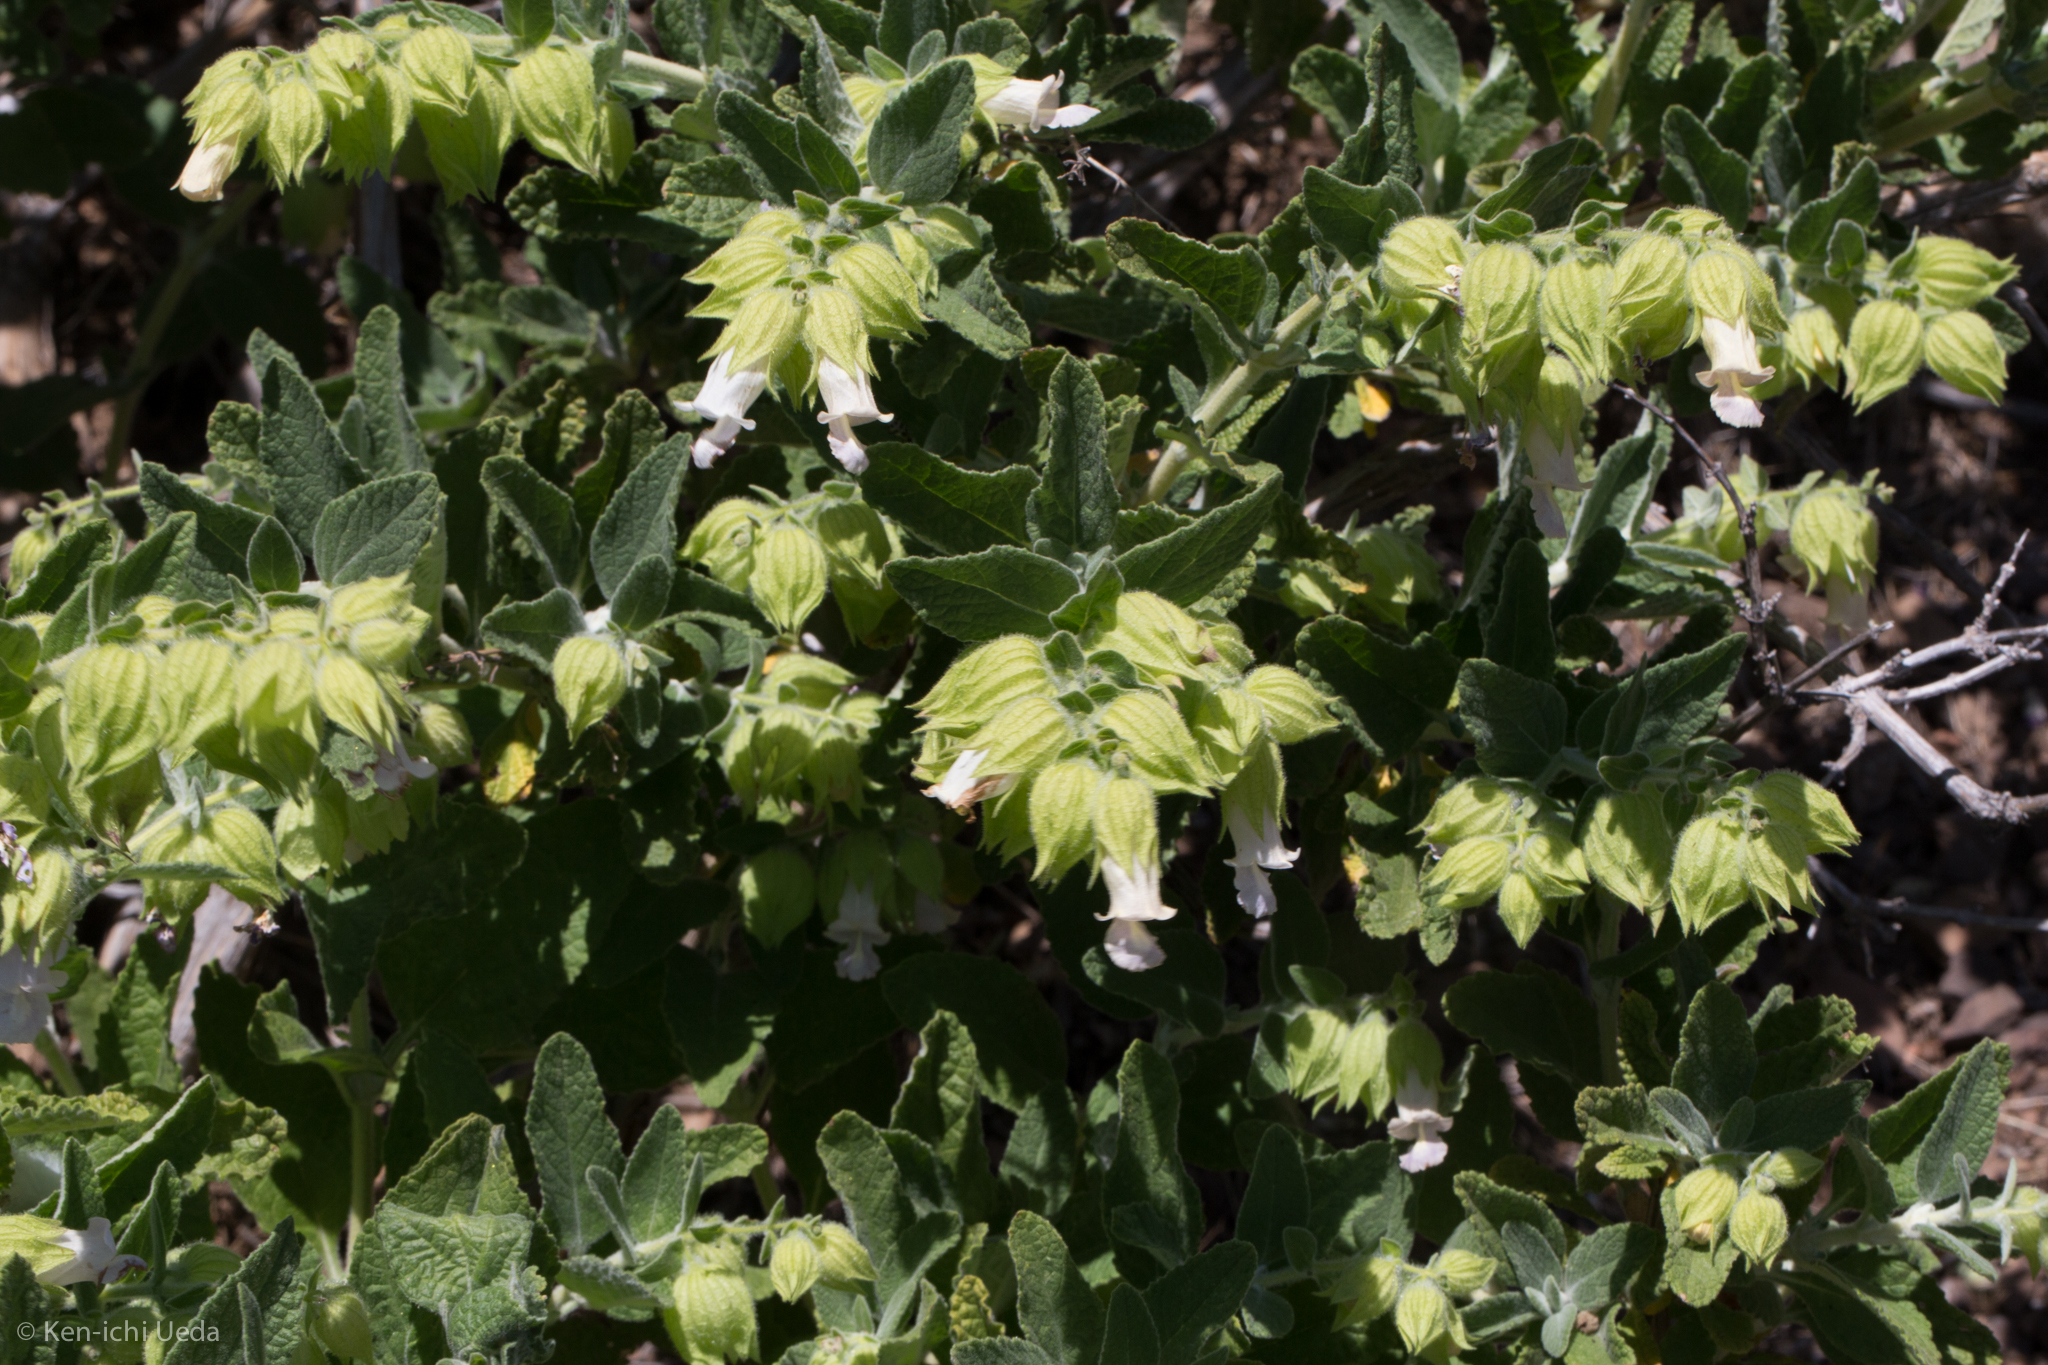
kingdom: Plantae
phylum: Tracheophyta
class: Magnoliopsida
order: Lamiales
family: Lamiaceae
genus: Lepechinia
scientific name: Lepechinia calycina
